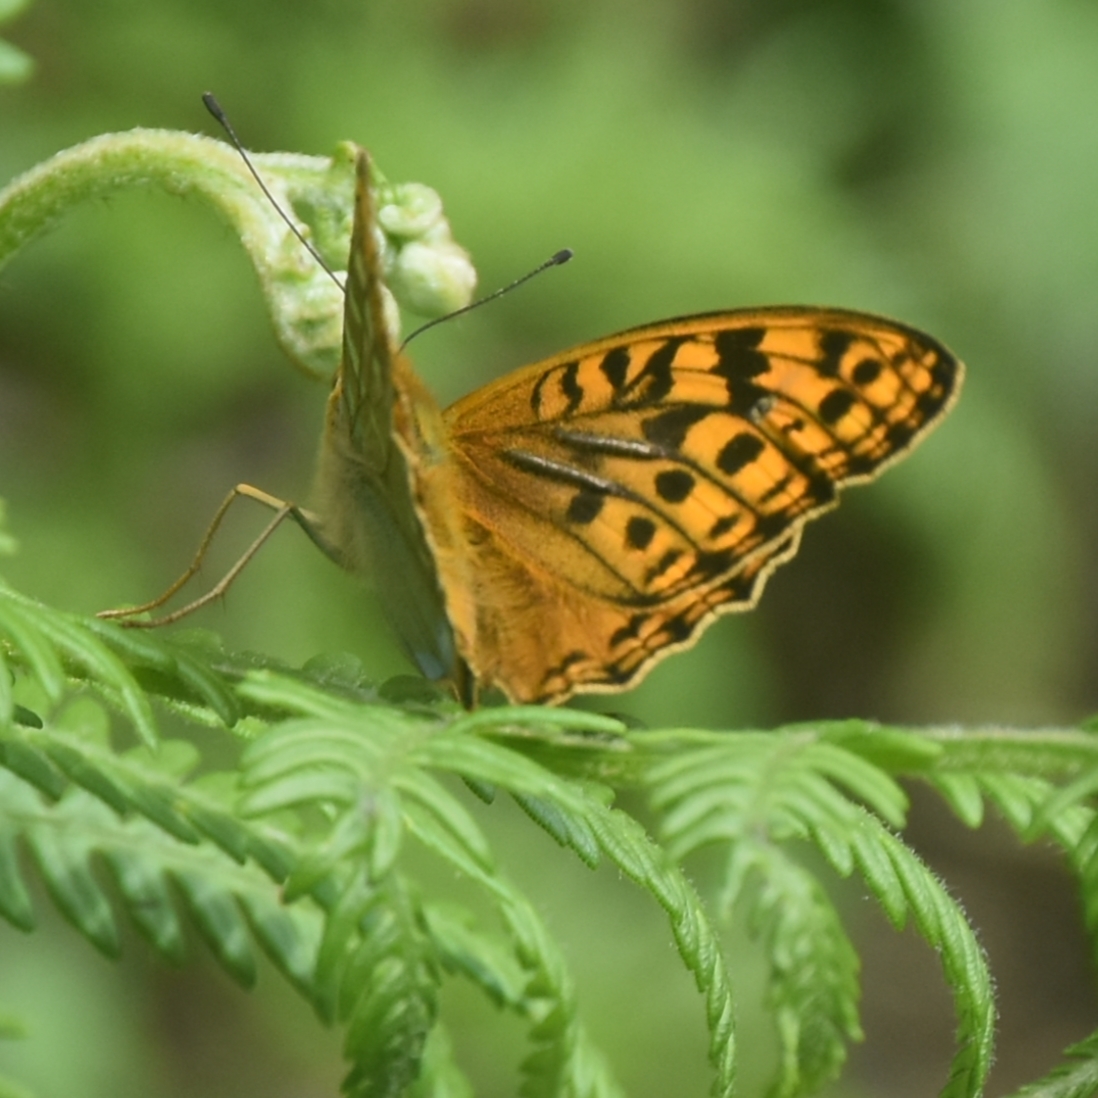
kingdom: Animalia
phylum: Arthropoda
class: Insecta
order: Lepidoptera
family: Nymphalidae
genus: Fabriciana
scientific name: Fabriciana kamala
